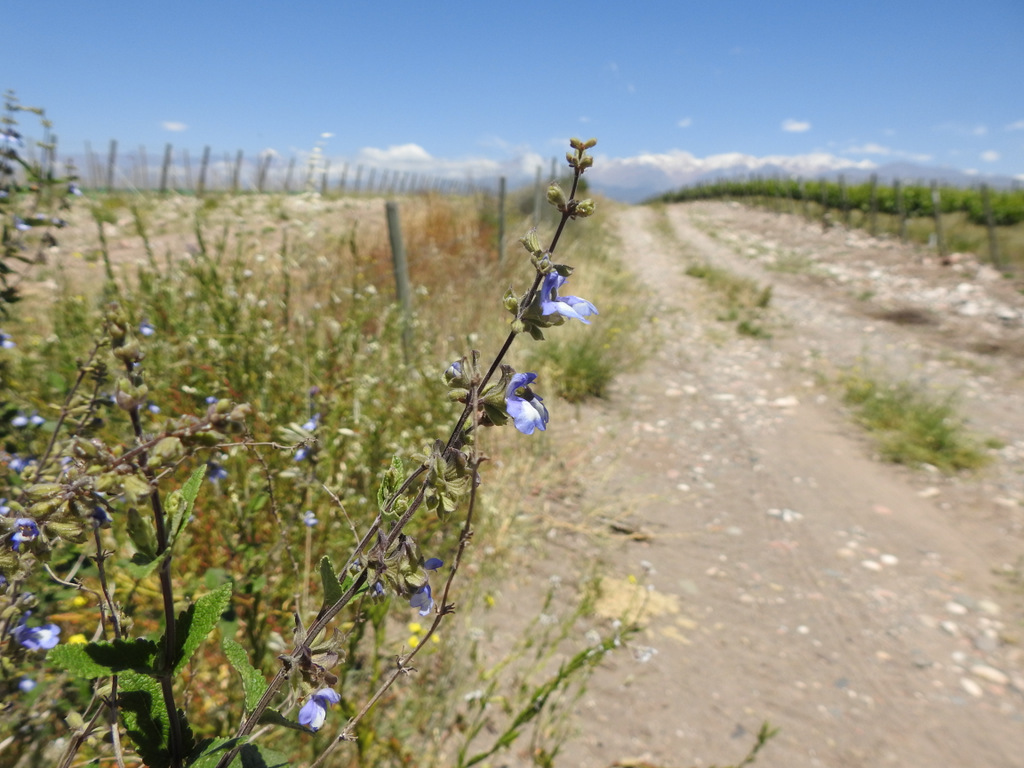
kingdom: Plantae
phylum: Tracheophyta
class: Magnoliopsida
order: Lamiales
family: Lamiaceae
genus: Salvia
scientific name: Salvia cuspidata
